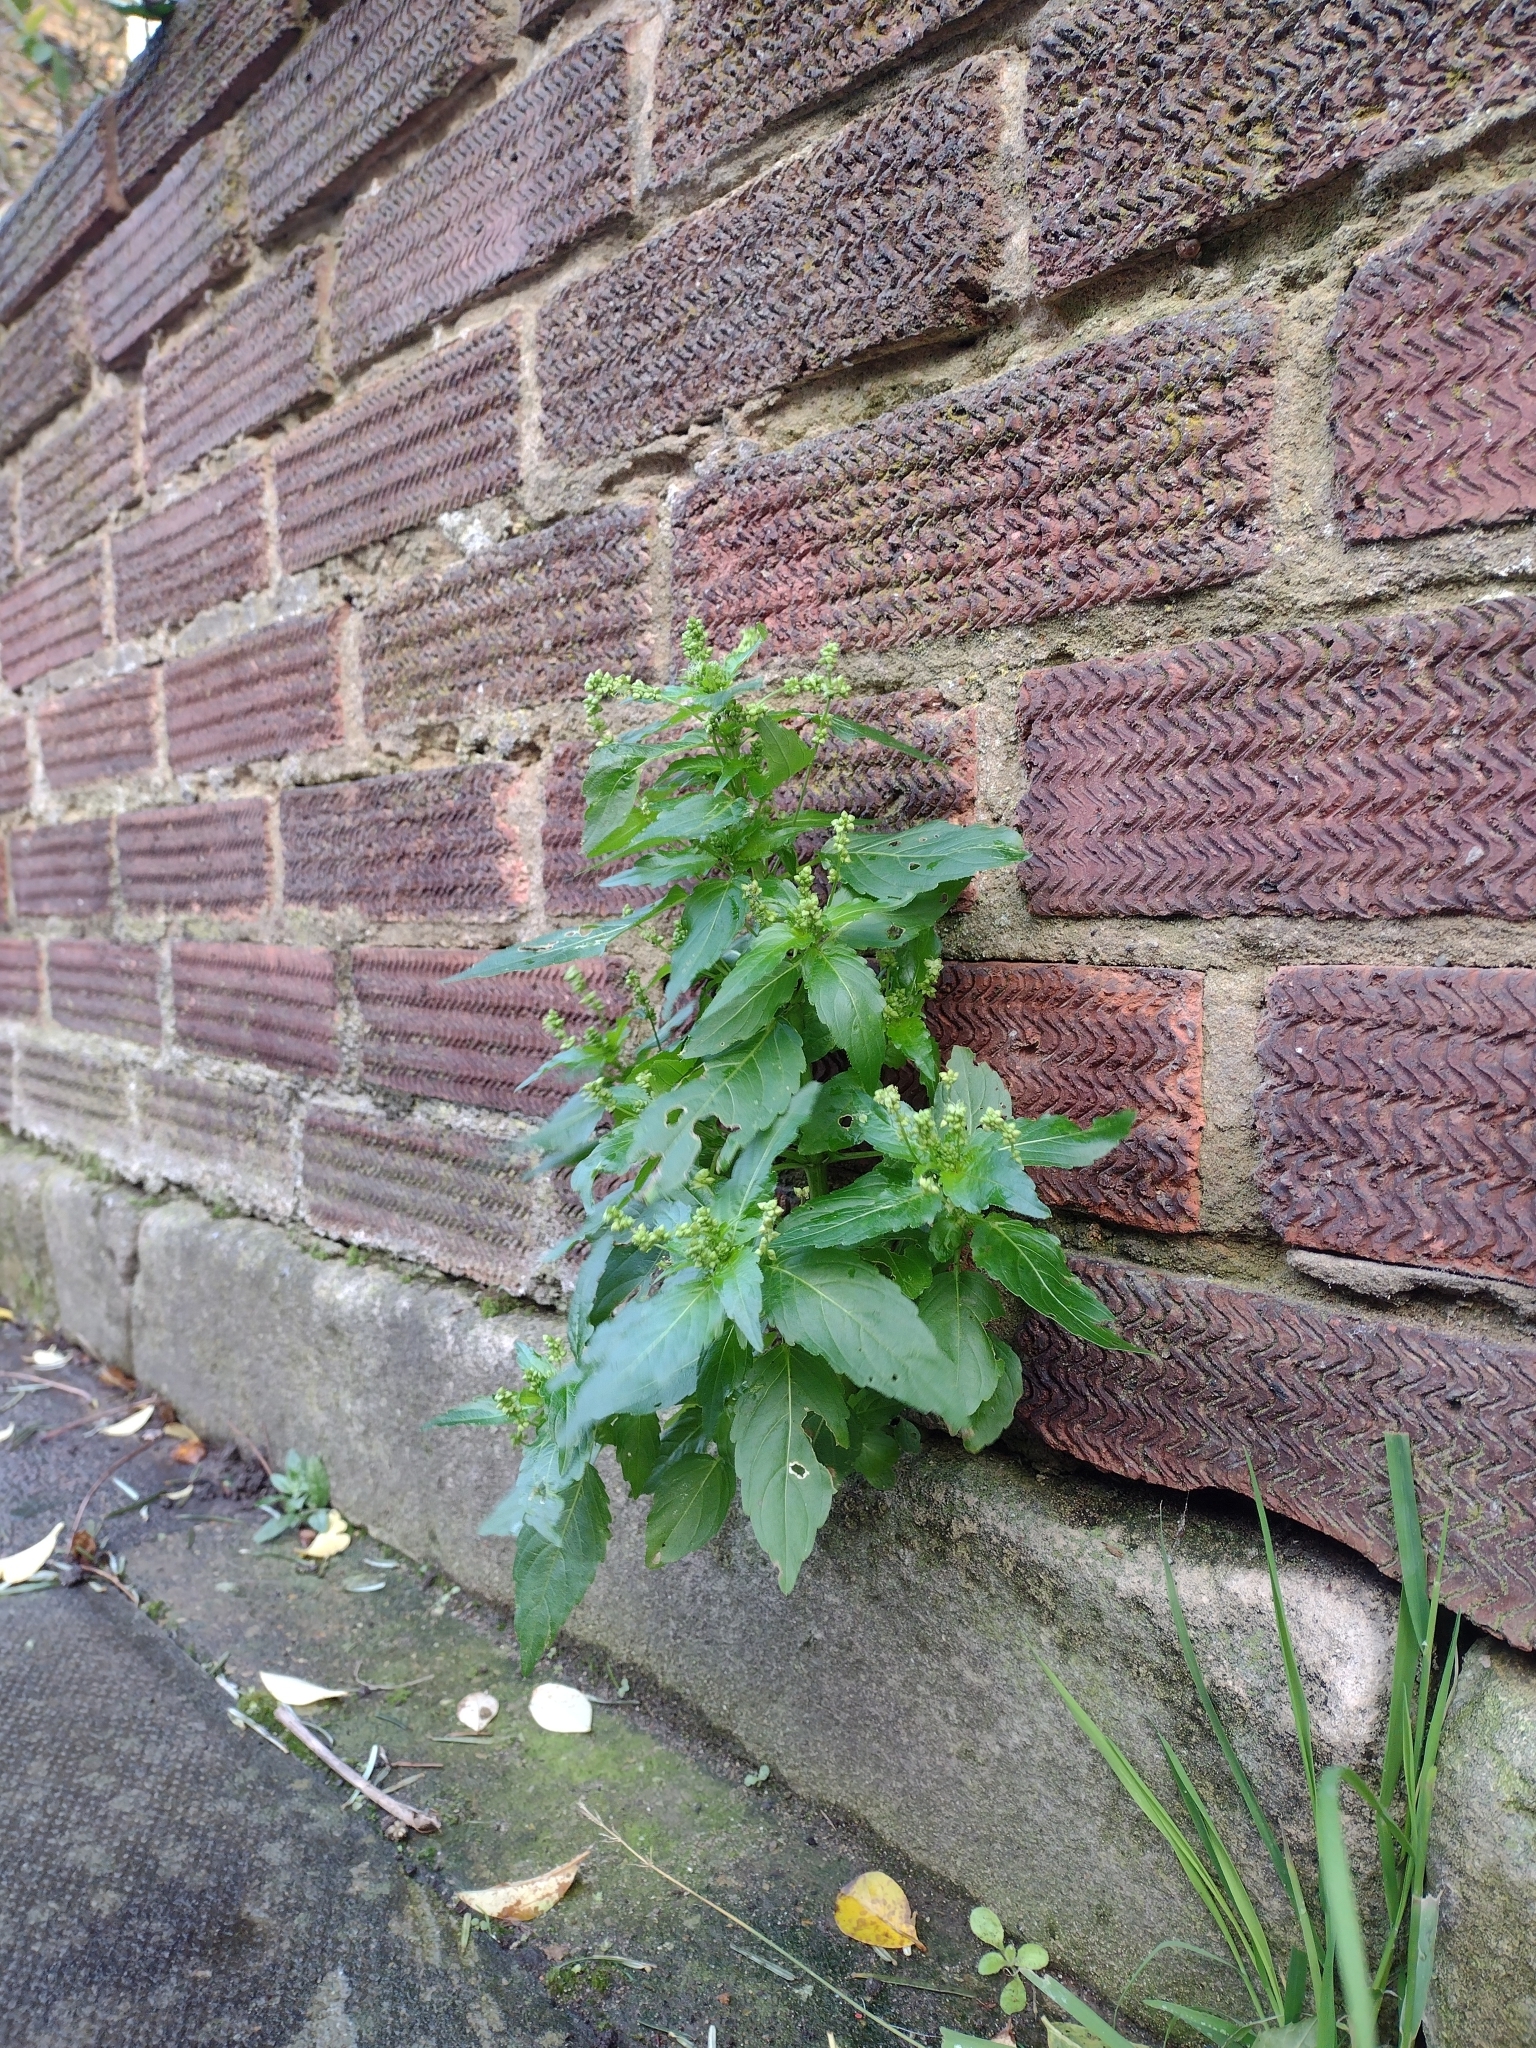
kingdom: Plantae
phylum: Tracheophyta
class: Magnoliopsida
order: Malpighiales
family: Euphorbiaceae
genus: Mercurialis
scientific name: Mercurialis annua
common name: Annual mercury
